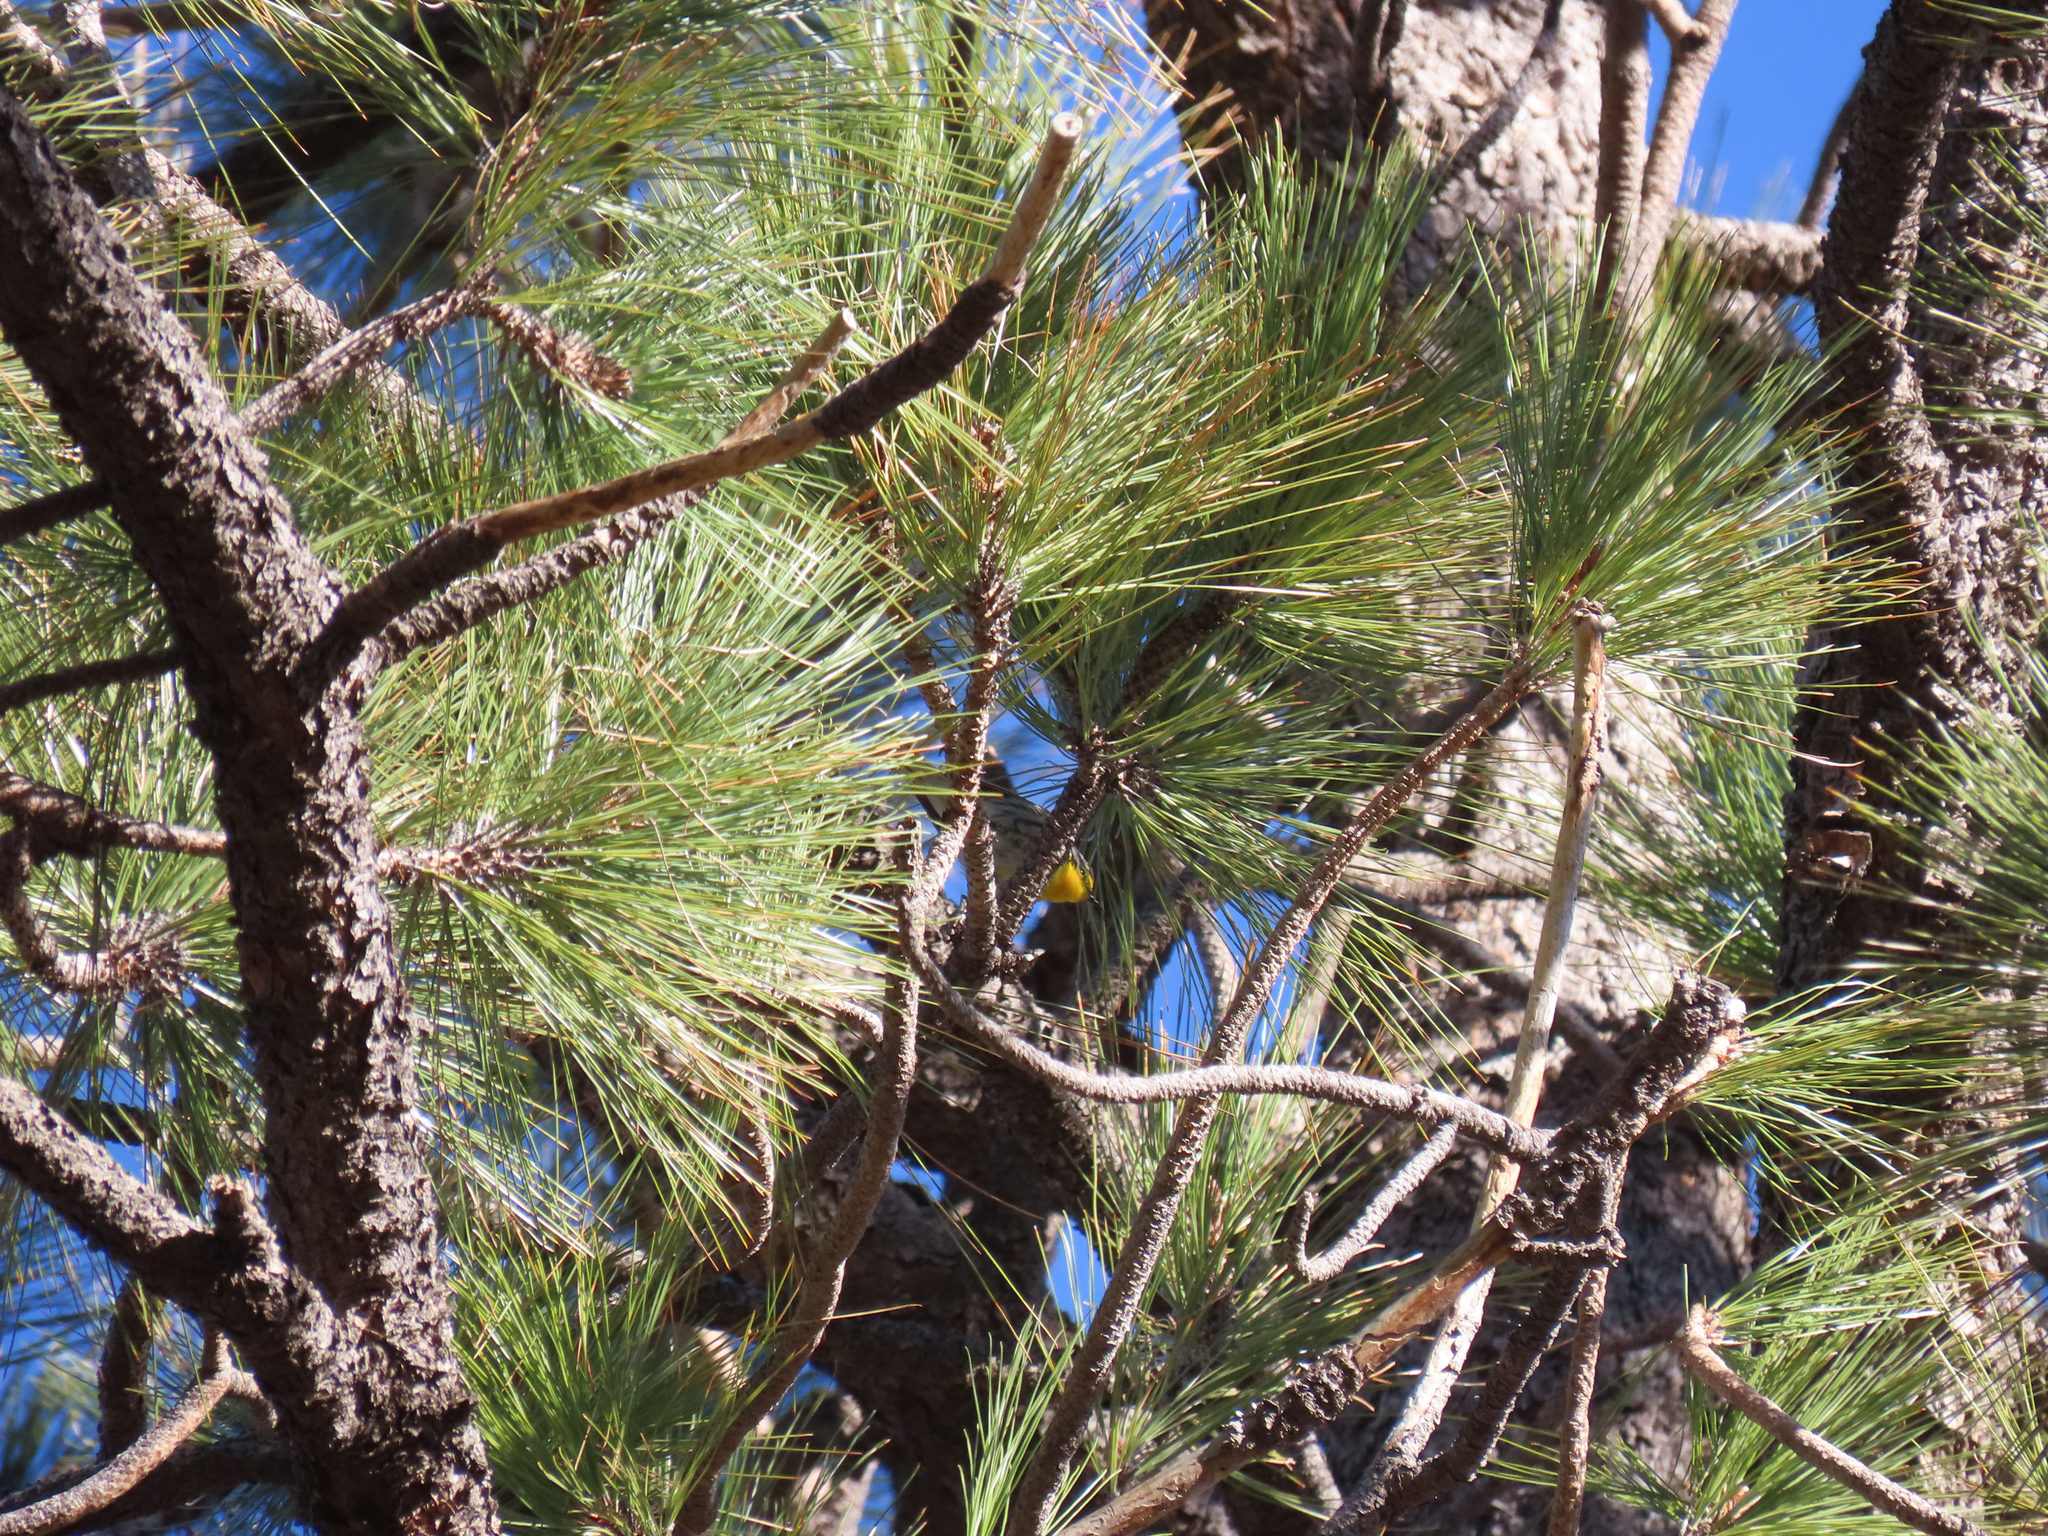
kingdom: Animalia
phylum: Chordata
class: Aves
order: Passeriformes
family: Parulidae
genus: Setophaga
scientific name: Setophaga graciae
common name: Grace's warbler
